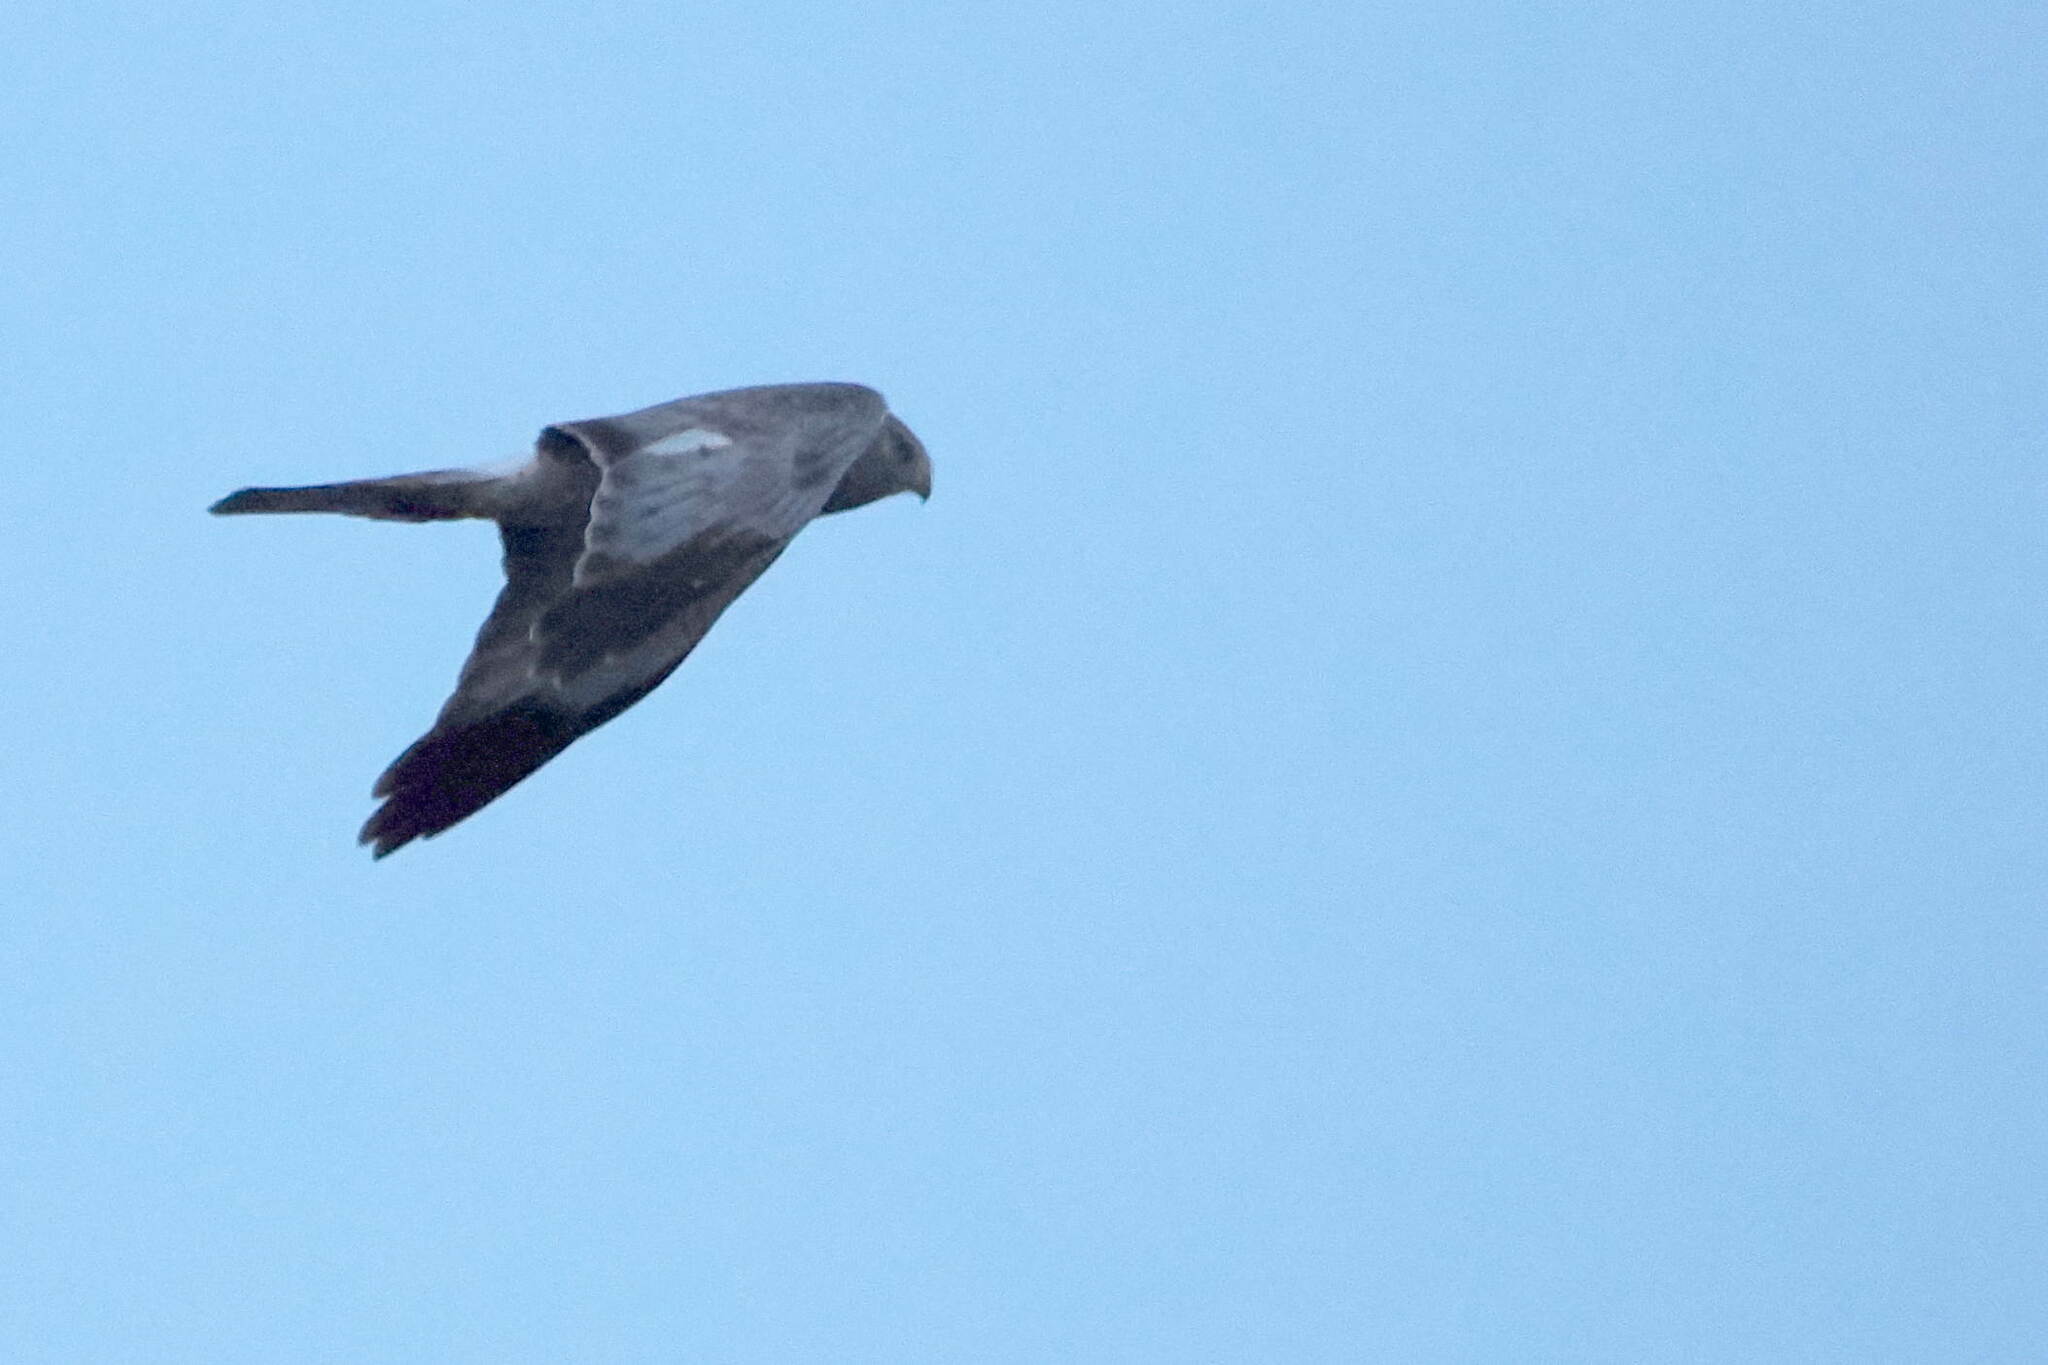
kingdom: Animalia
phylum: Chordata
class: Aves
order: Accipitriformes
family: Accipitridae
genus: Circus
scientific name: Circus cyaneus
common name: Hen harrier
